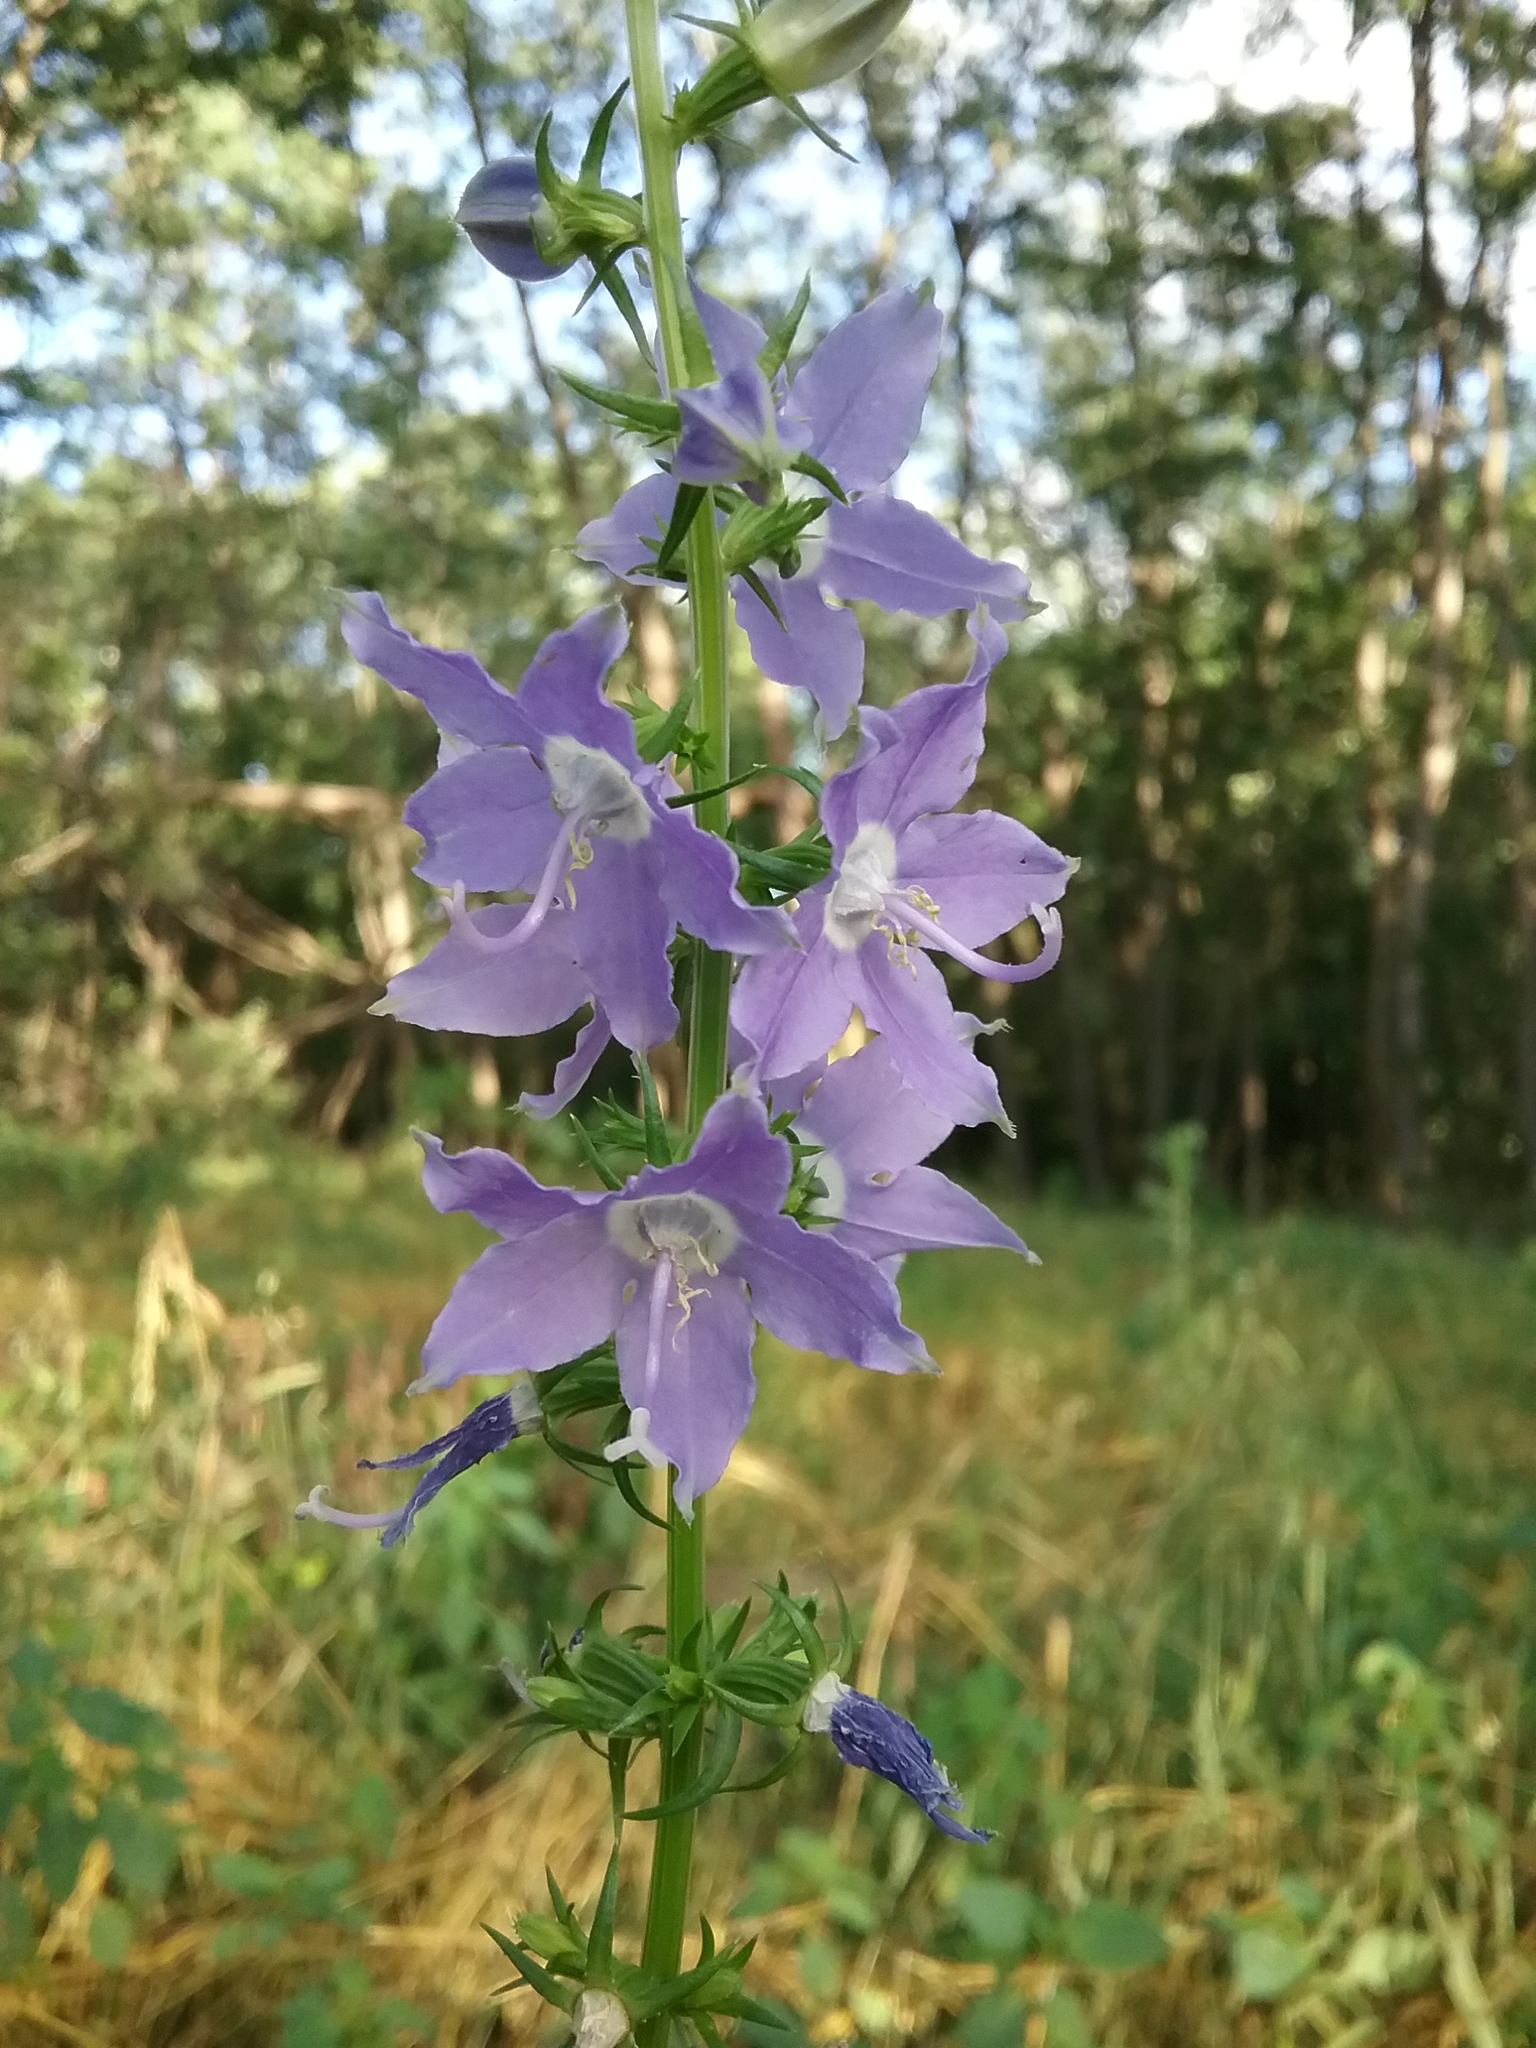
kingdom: Plantae
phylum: Tracheophyta
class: Magnoliopsida
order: Asterales
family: Campanulaceae
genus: Campanulastrum
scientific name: Campanulastrum americanum
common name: American bellflower
